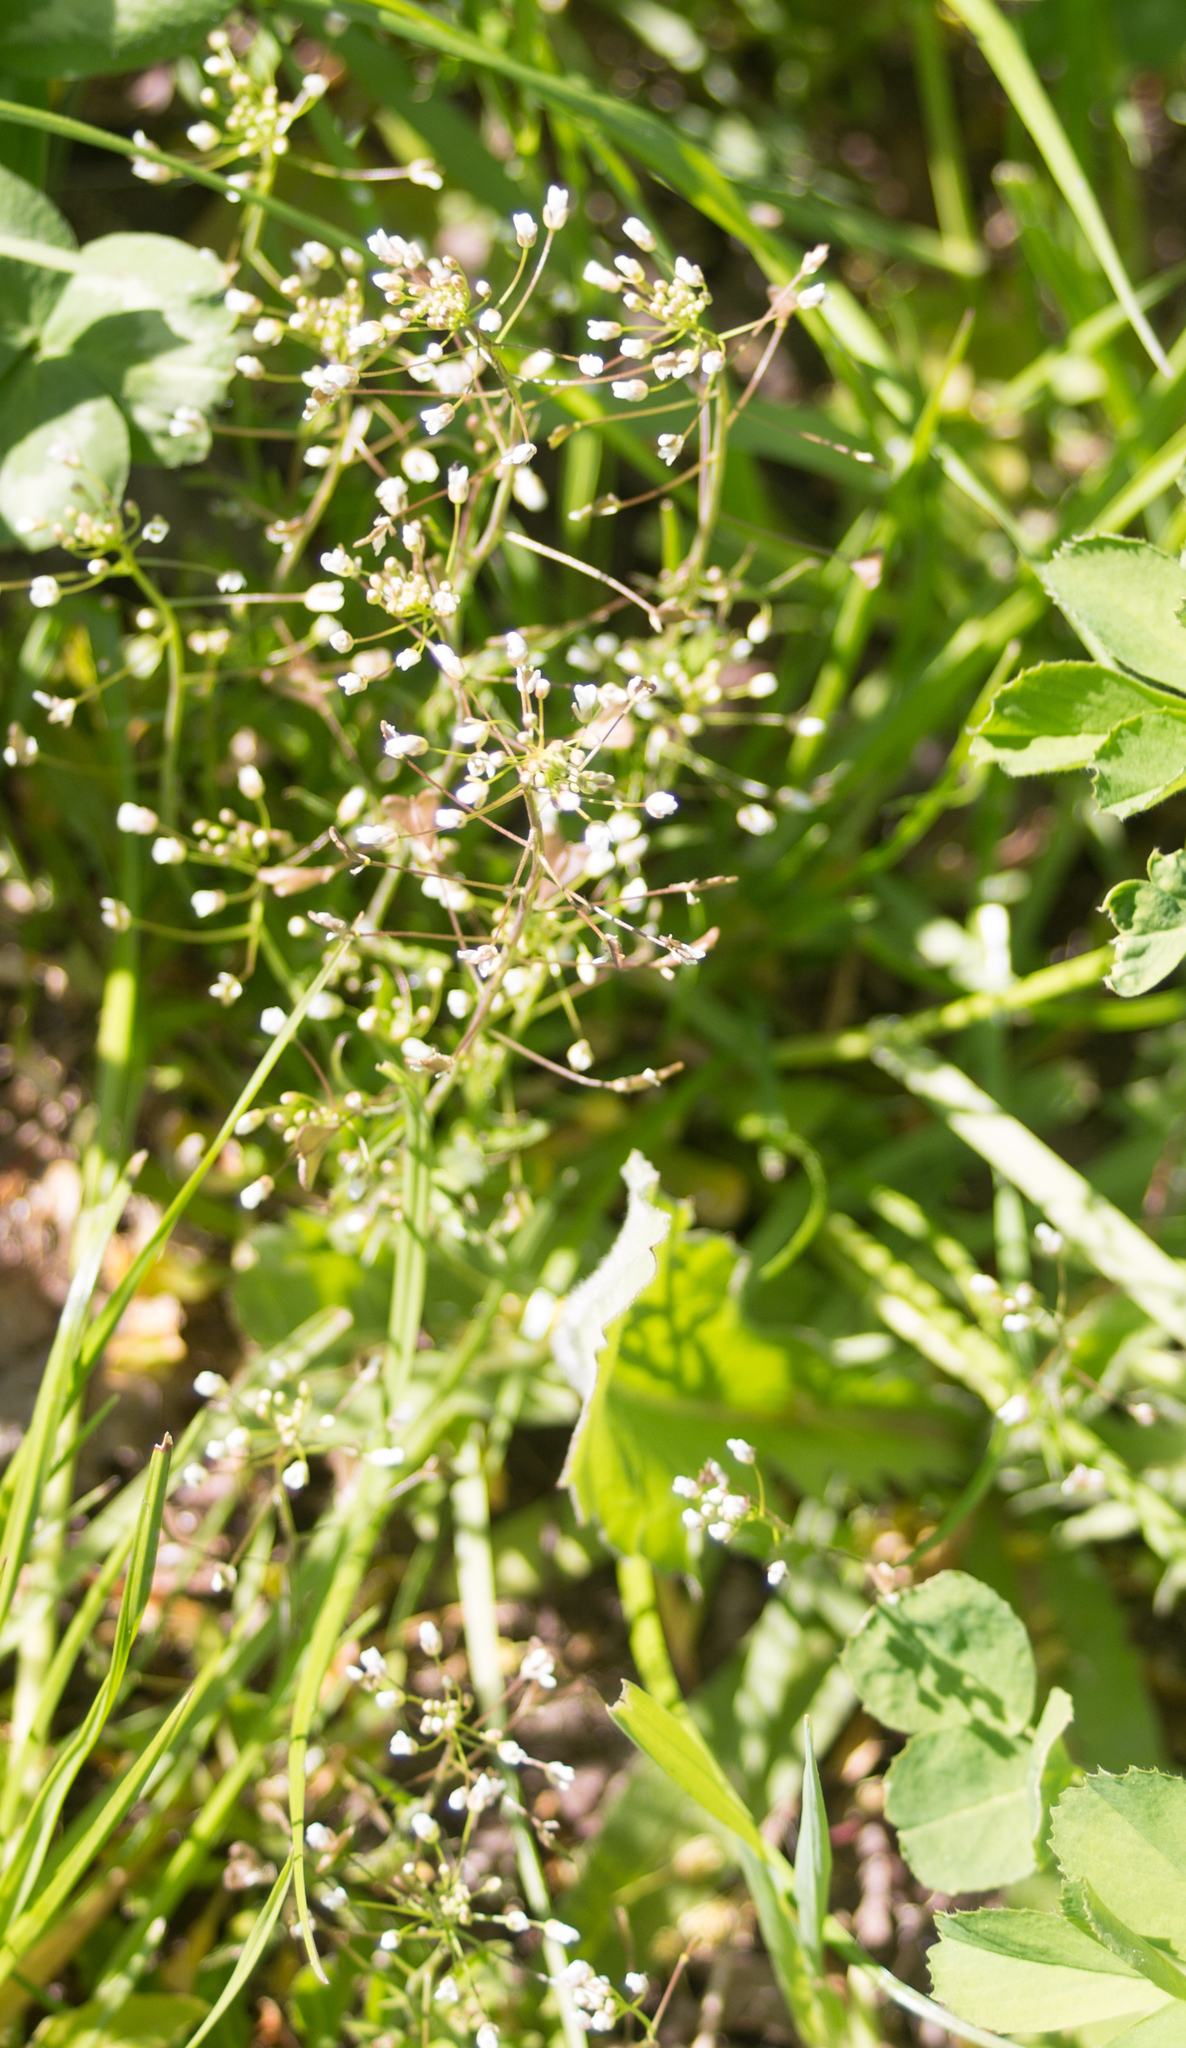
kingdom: Plantae
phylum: Tracheophyta
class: Magnoliopsida
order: Brassicales
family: Brassicaceae
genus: Capsella
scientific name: Capsella bursa-pastoris
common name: Shepherd's purse
